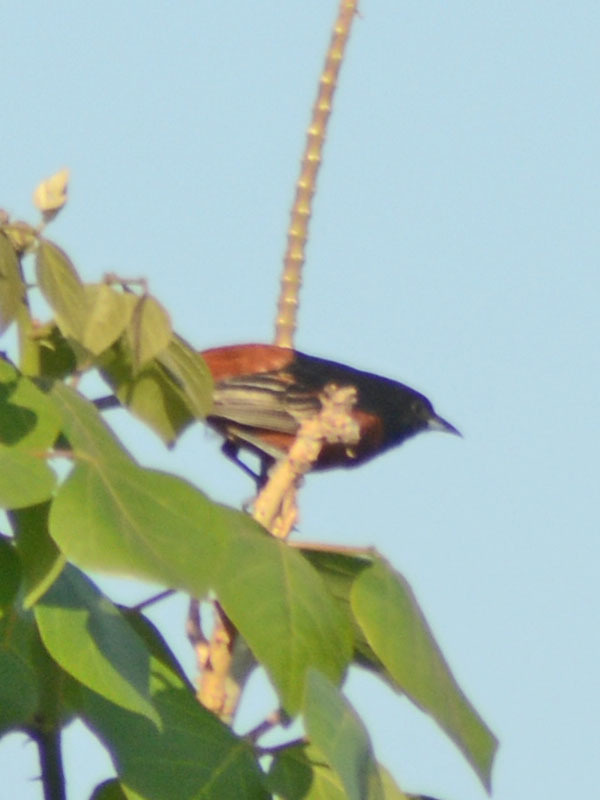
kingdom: Animalia
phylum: Chordata
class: Aves
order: Passeriformes
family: Icteridae
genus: Icterus
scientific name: Icterus spurius
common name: Orchard oriole
